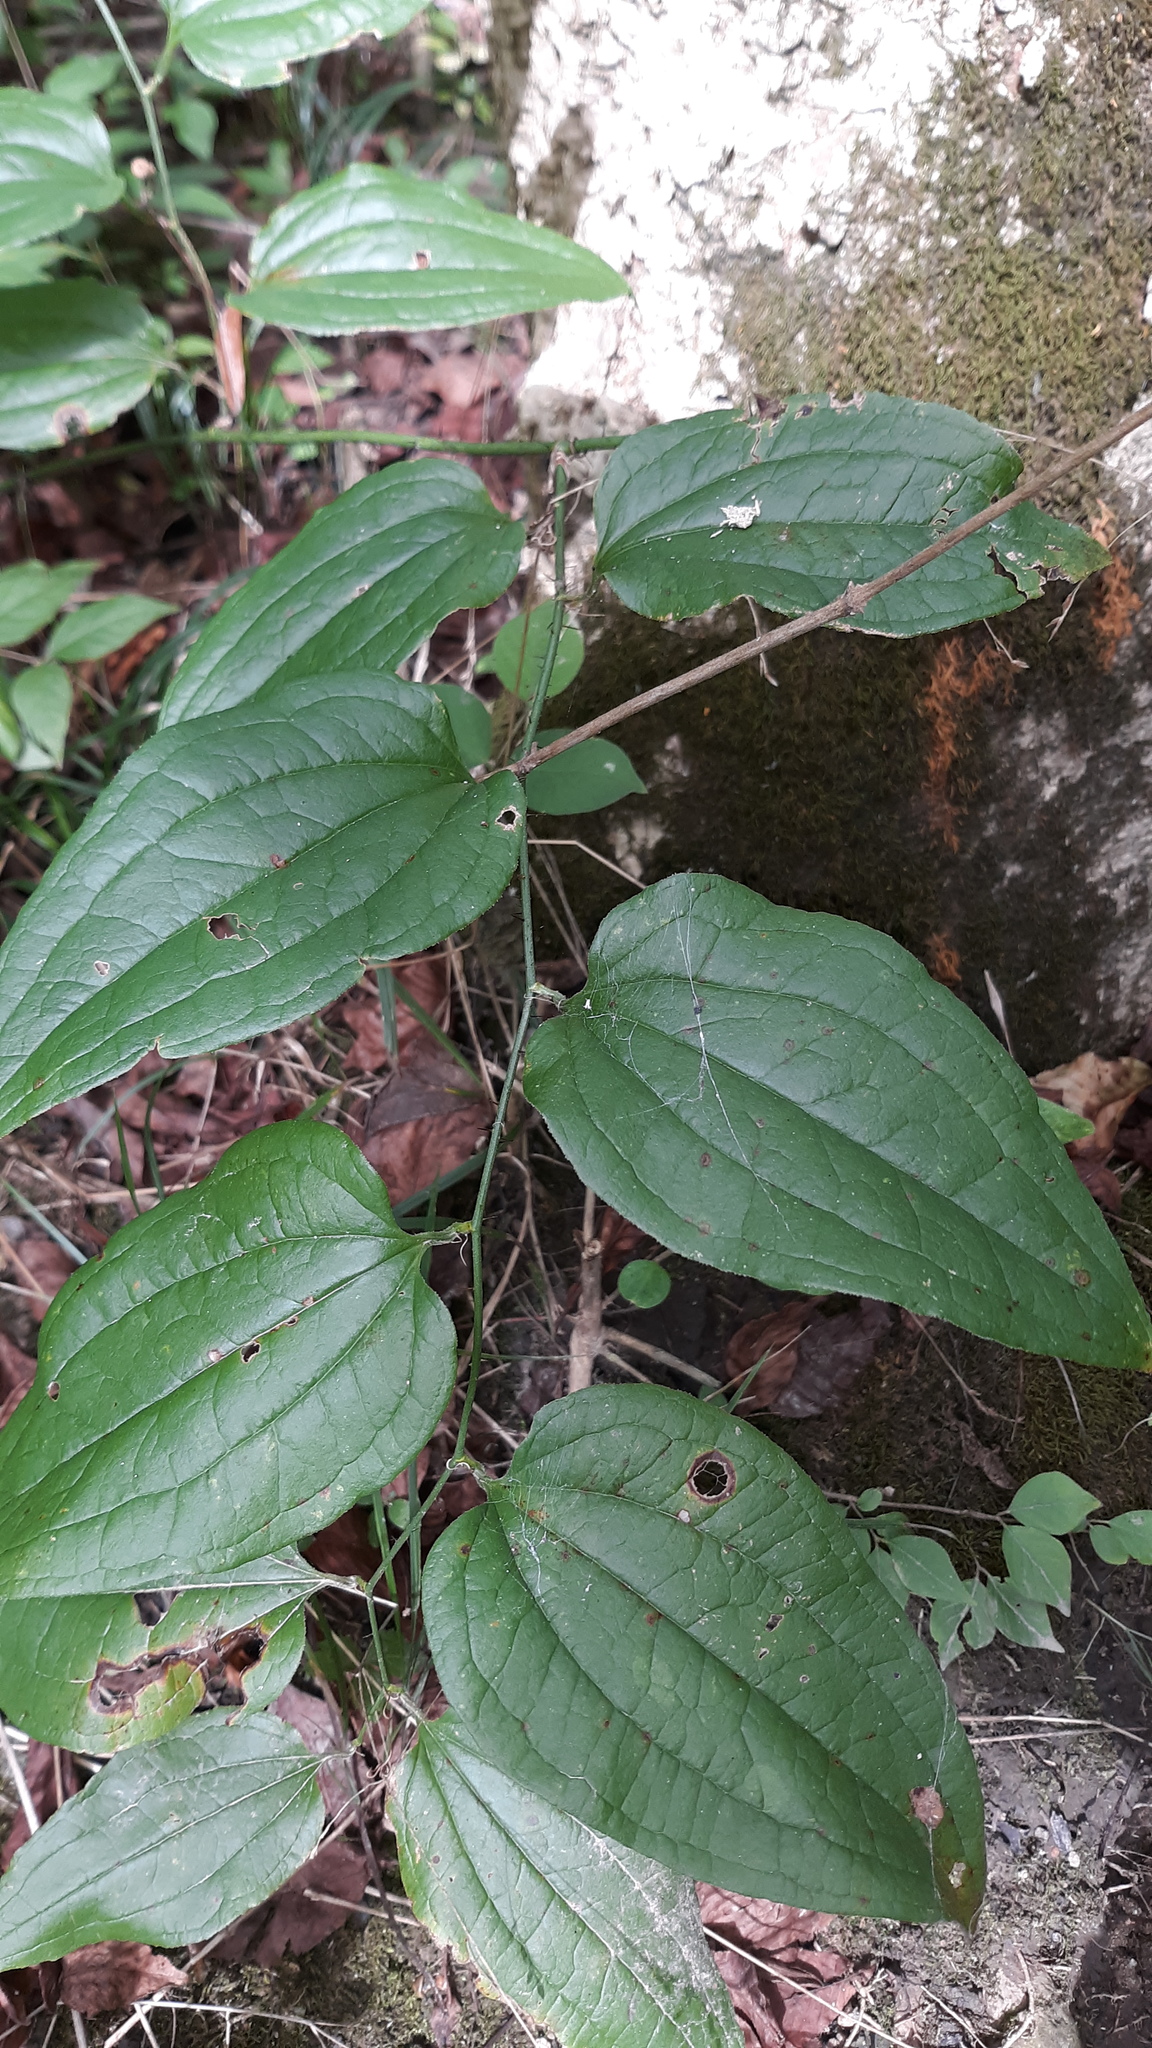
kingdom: Plantae
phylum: Tracheophyta
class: Liliopsida
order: Liliales
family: Smilacaceae
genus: Smilax
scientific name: Smilax tamnoides
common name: Hellfetter
